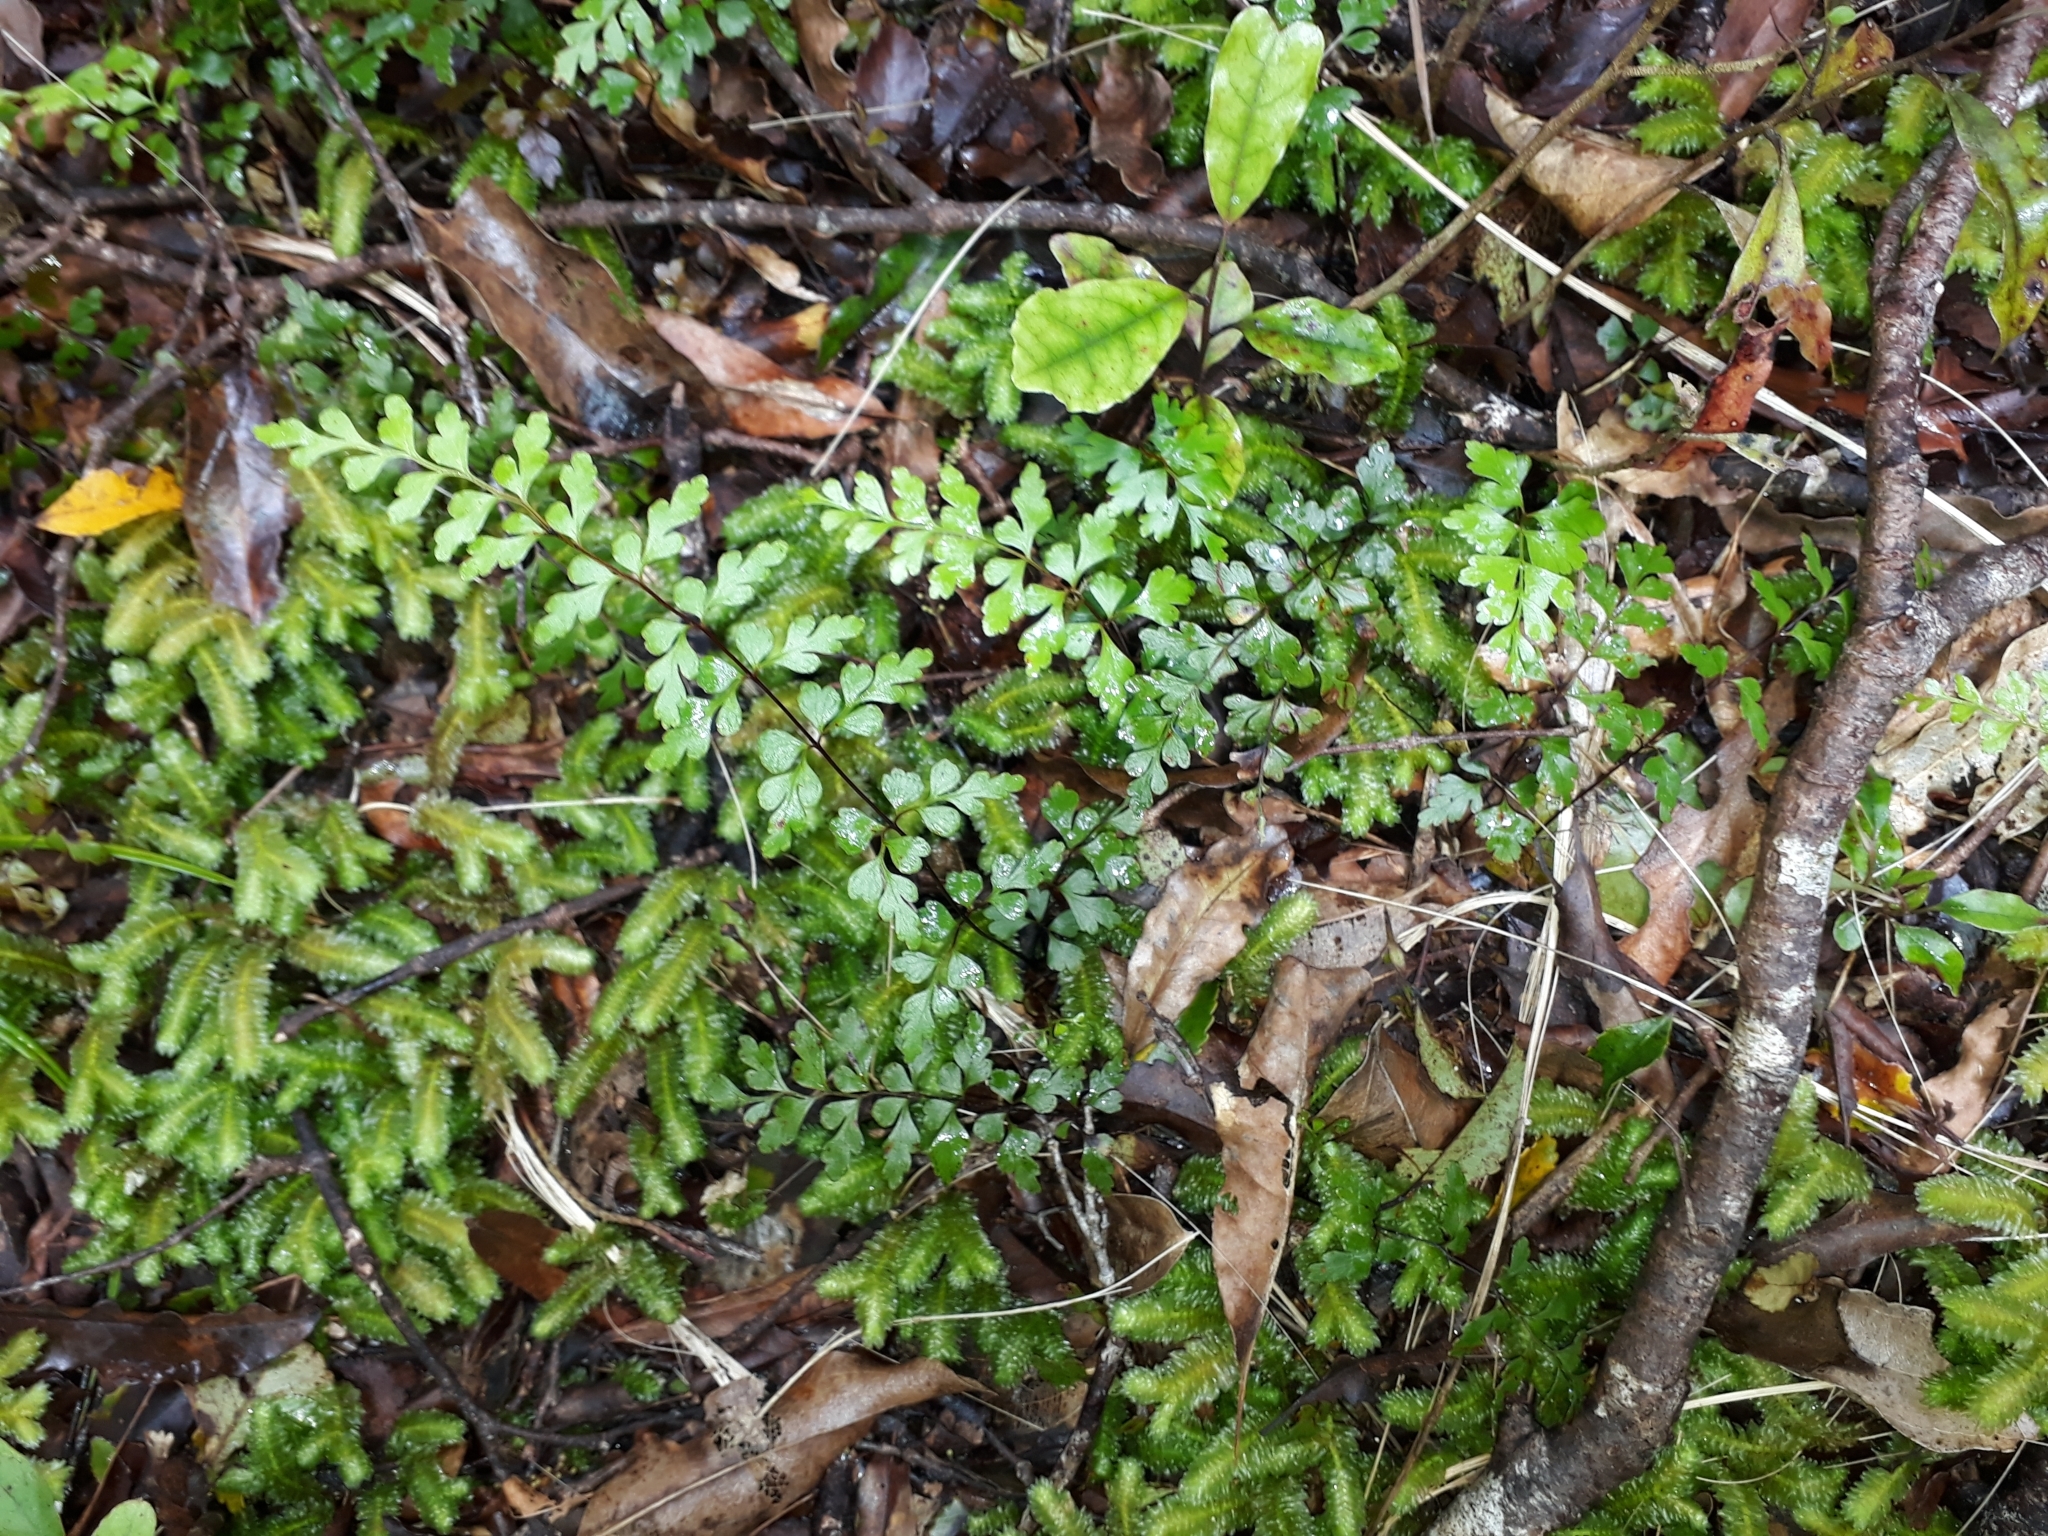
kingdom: Plantae
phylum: Tracheophyta
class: Polypodiopsida
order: Polypodiales
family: Lindsaeaceae
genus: Lindsaea
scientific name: Lindsaea trichomanoides
